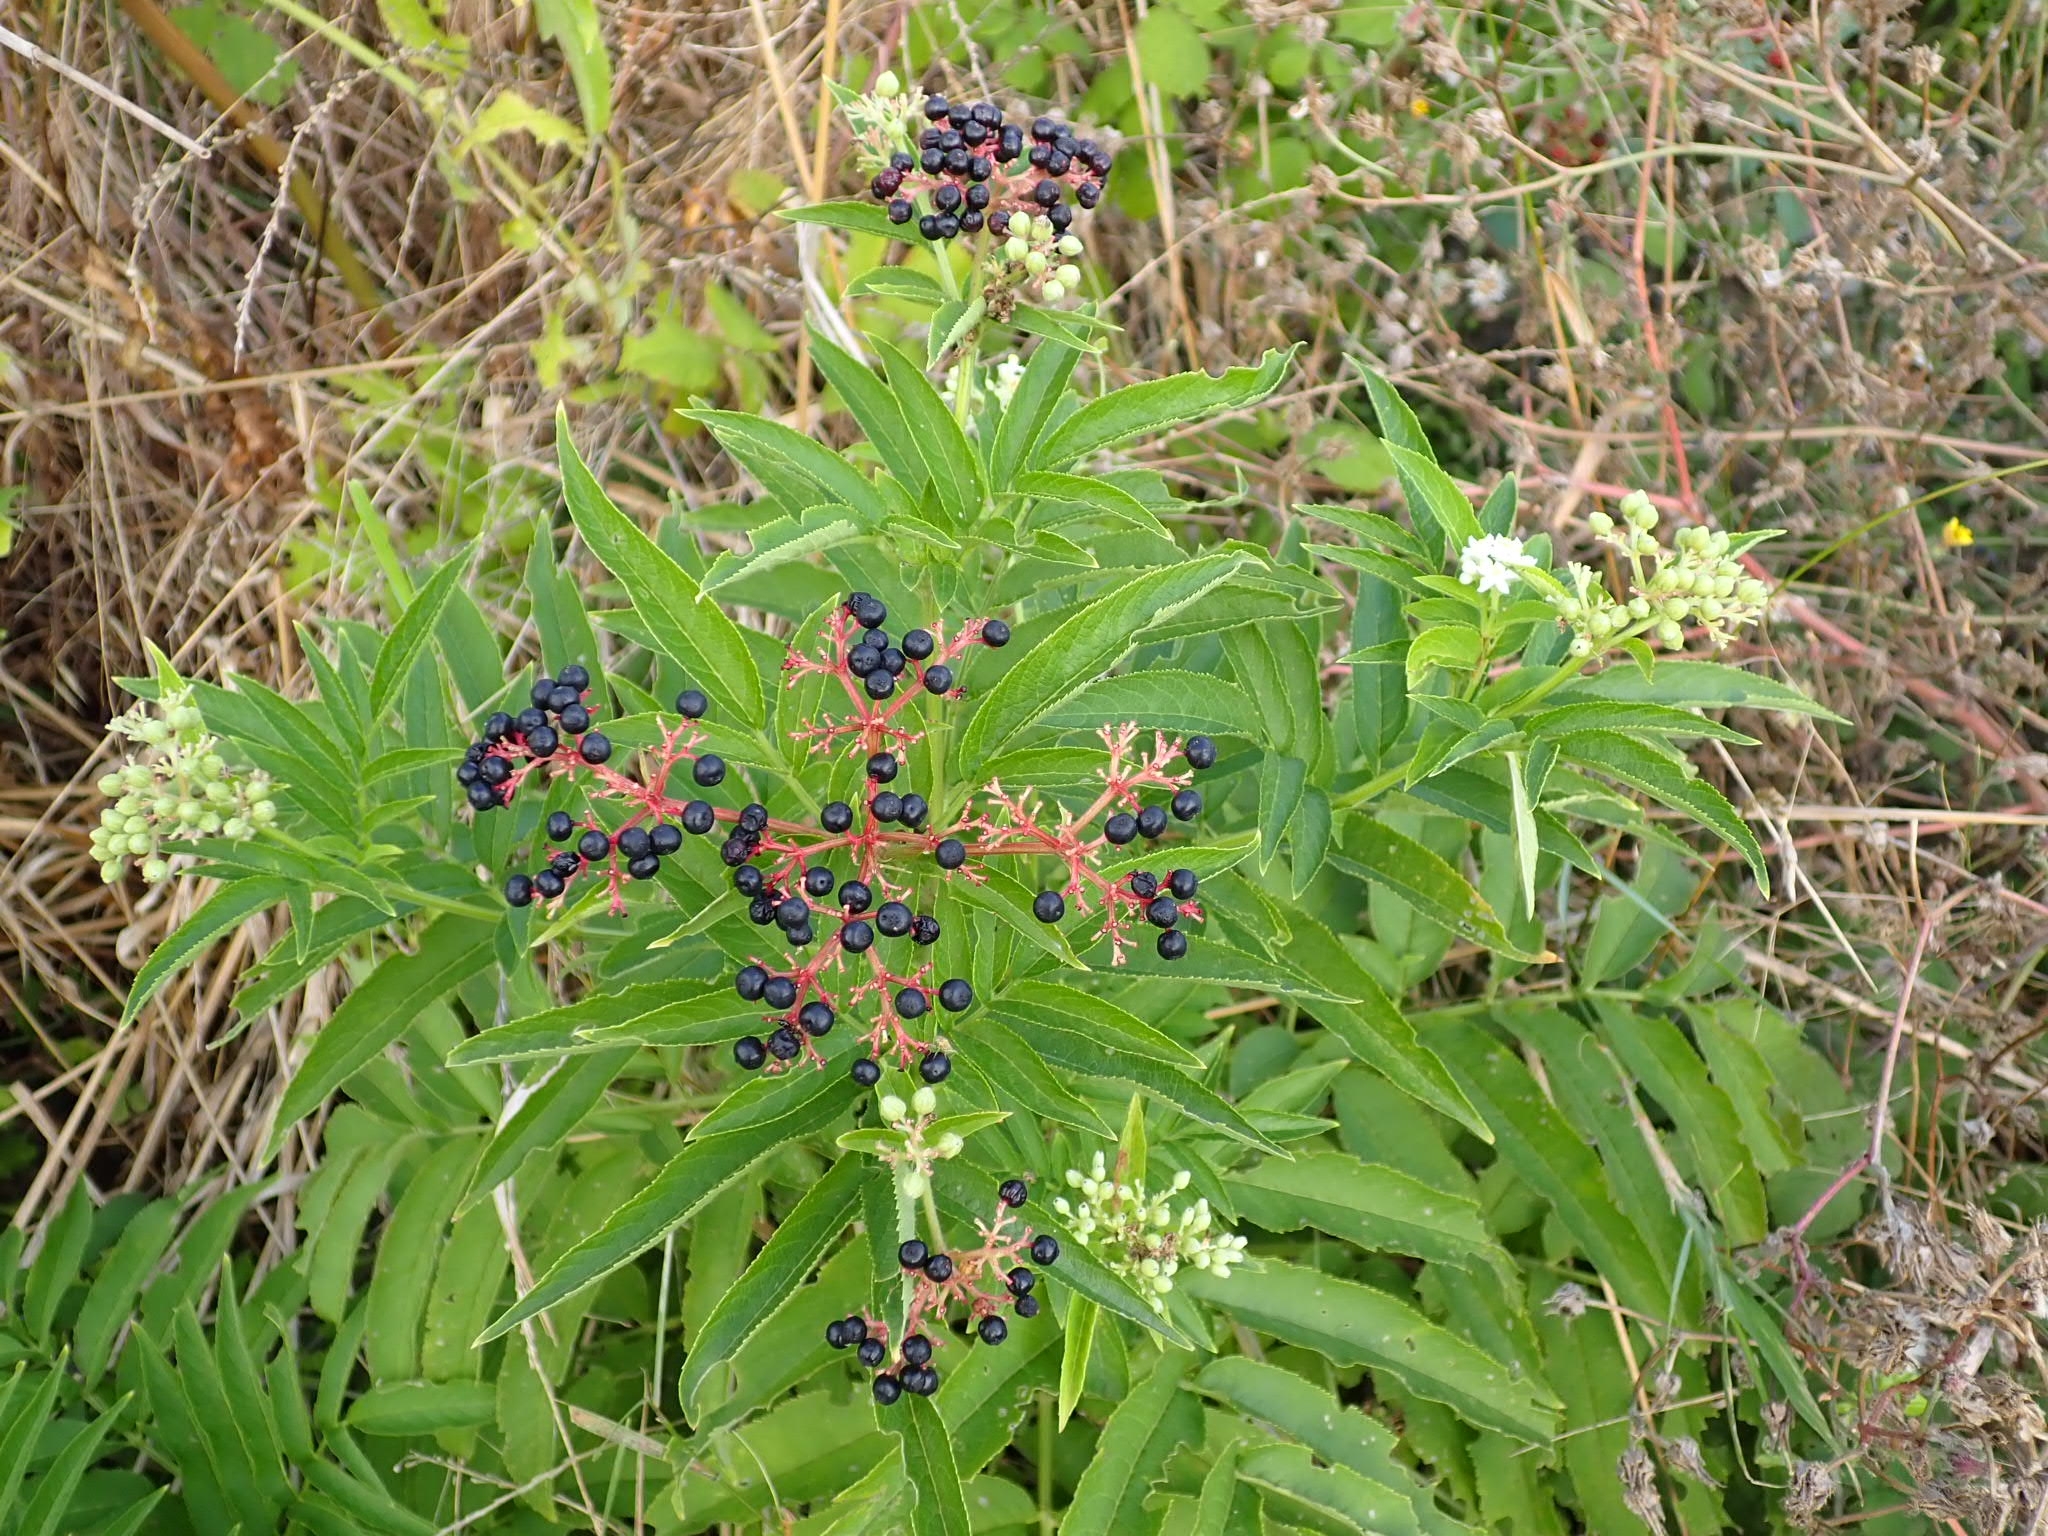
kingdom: Plantae
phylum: Tracheophyta
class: Magnoliopsida
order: Dipsacales
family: Viburnaceae
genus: Sambucus
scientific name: Sambucus ebulus
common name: Dwarf elder
